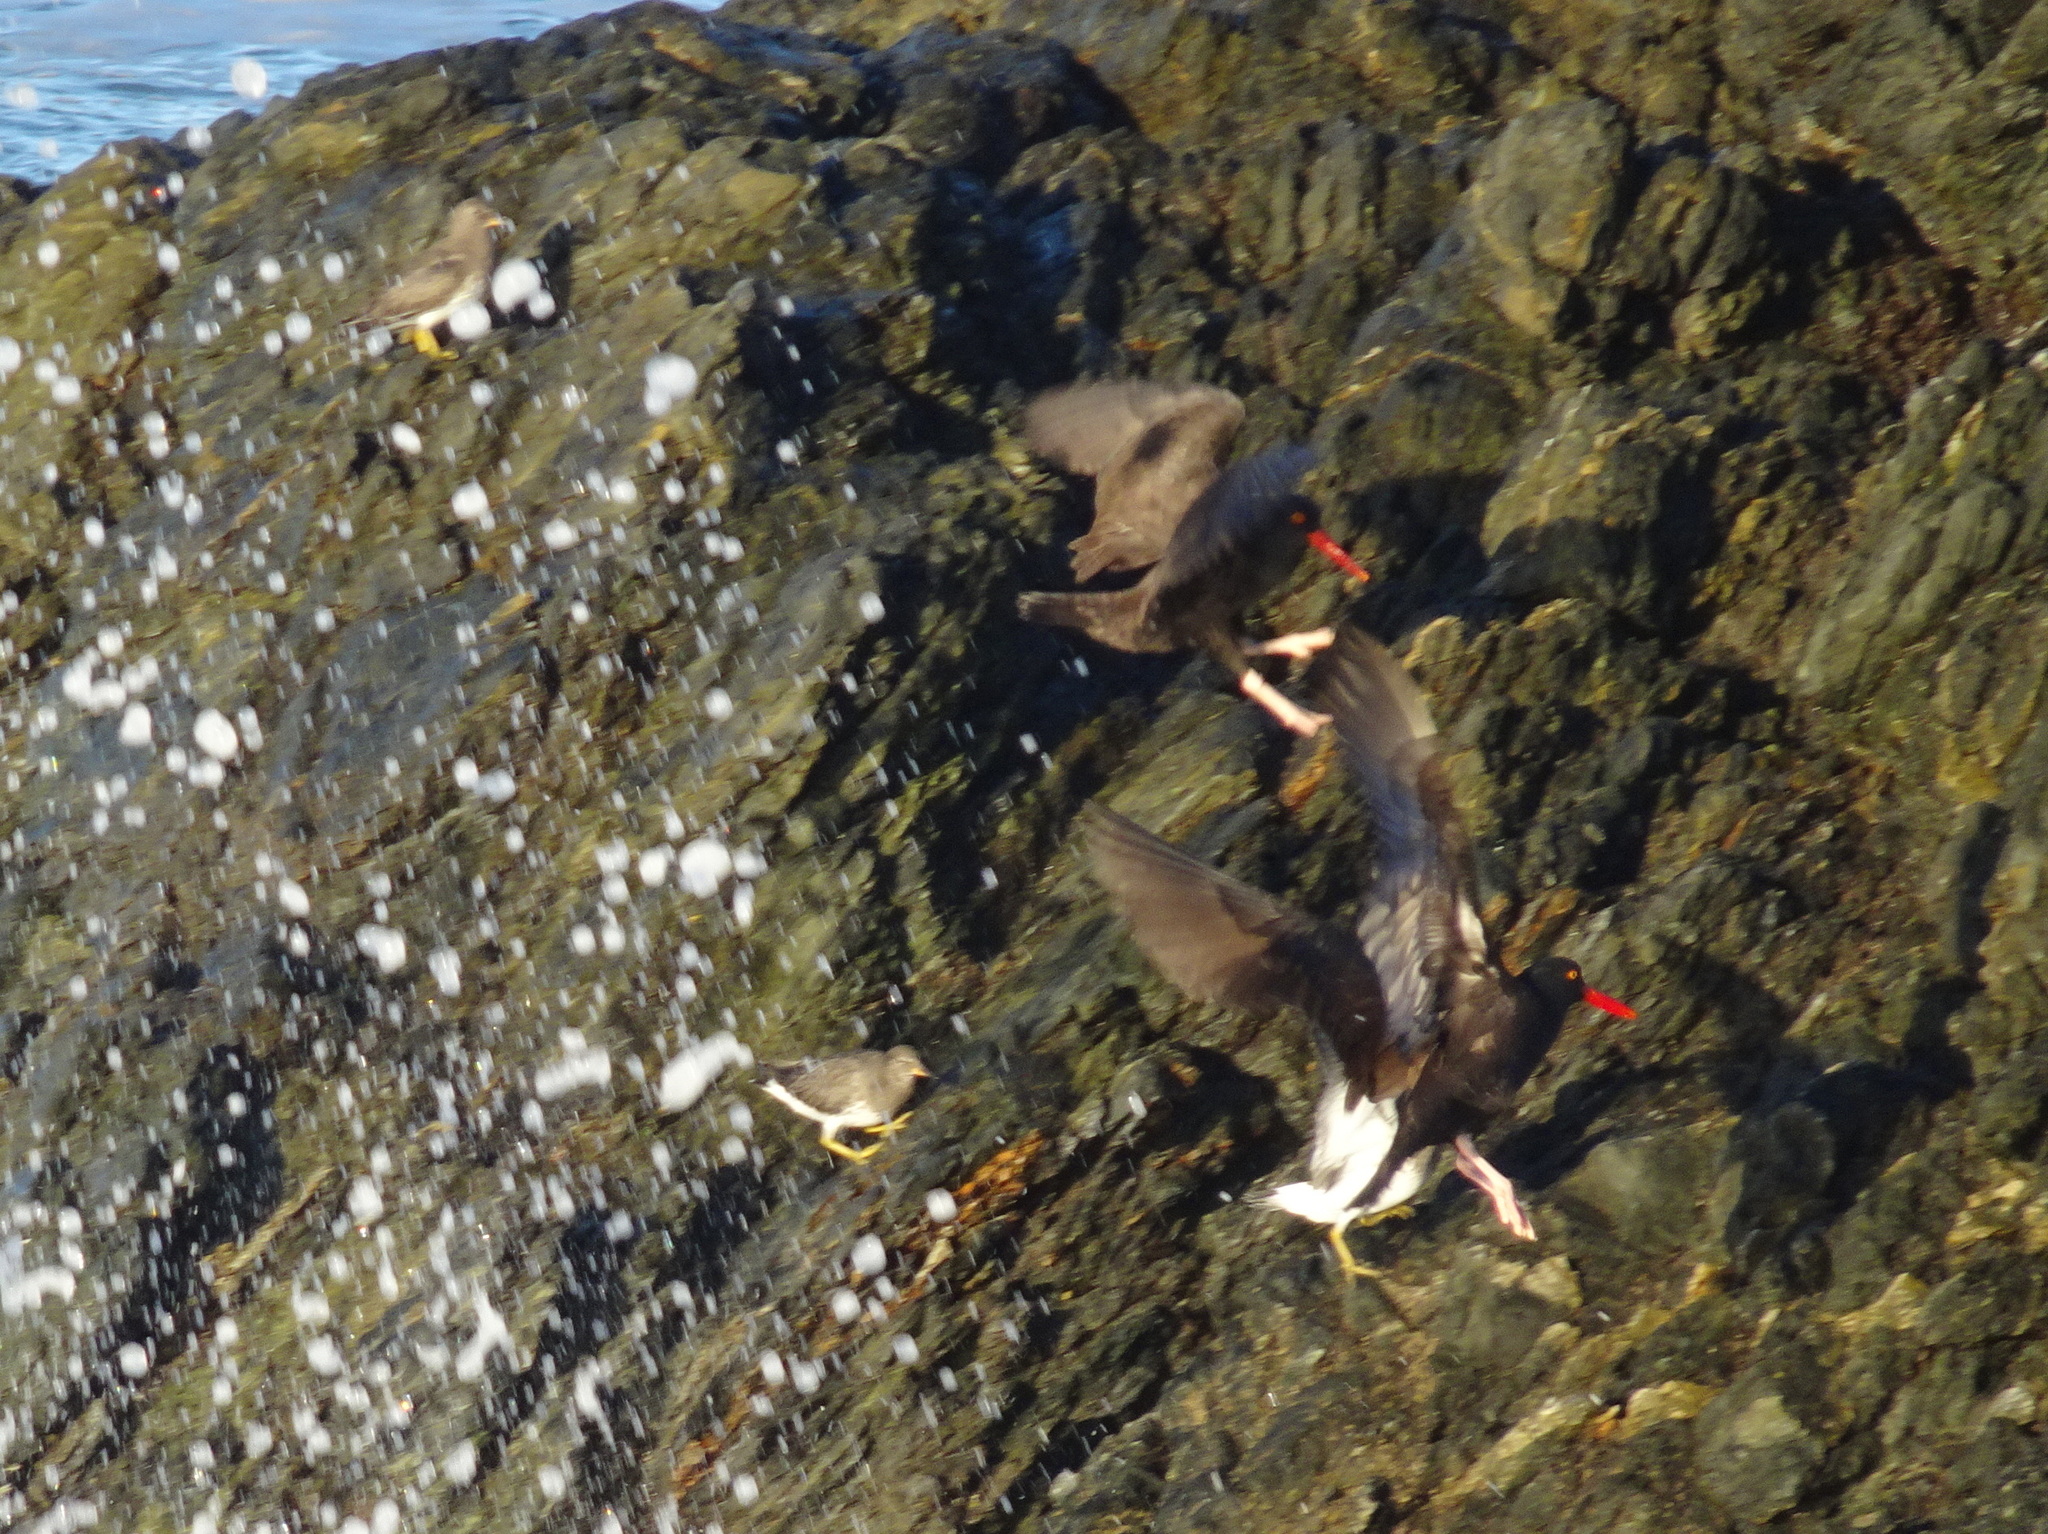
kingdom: Animalia
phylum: Chordata
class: Aves
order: Charadriiformes
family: Scolopacidae
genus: Calidris
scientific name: Calidris virgata
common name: Surfbird
